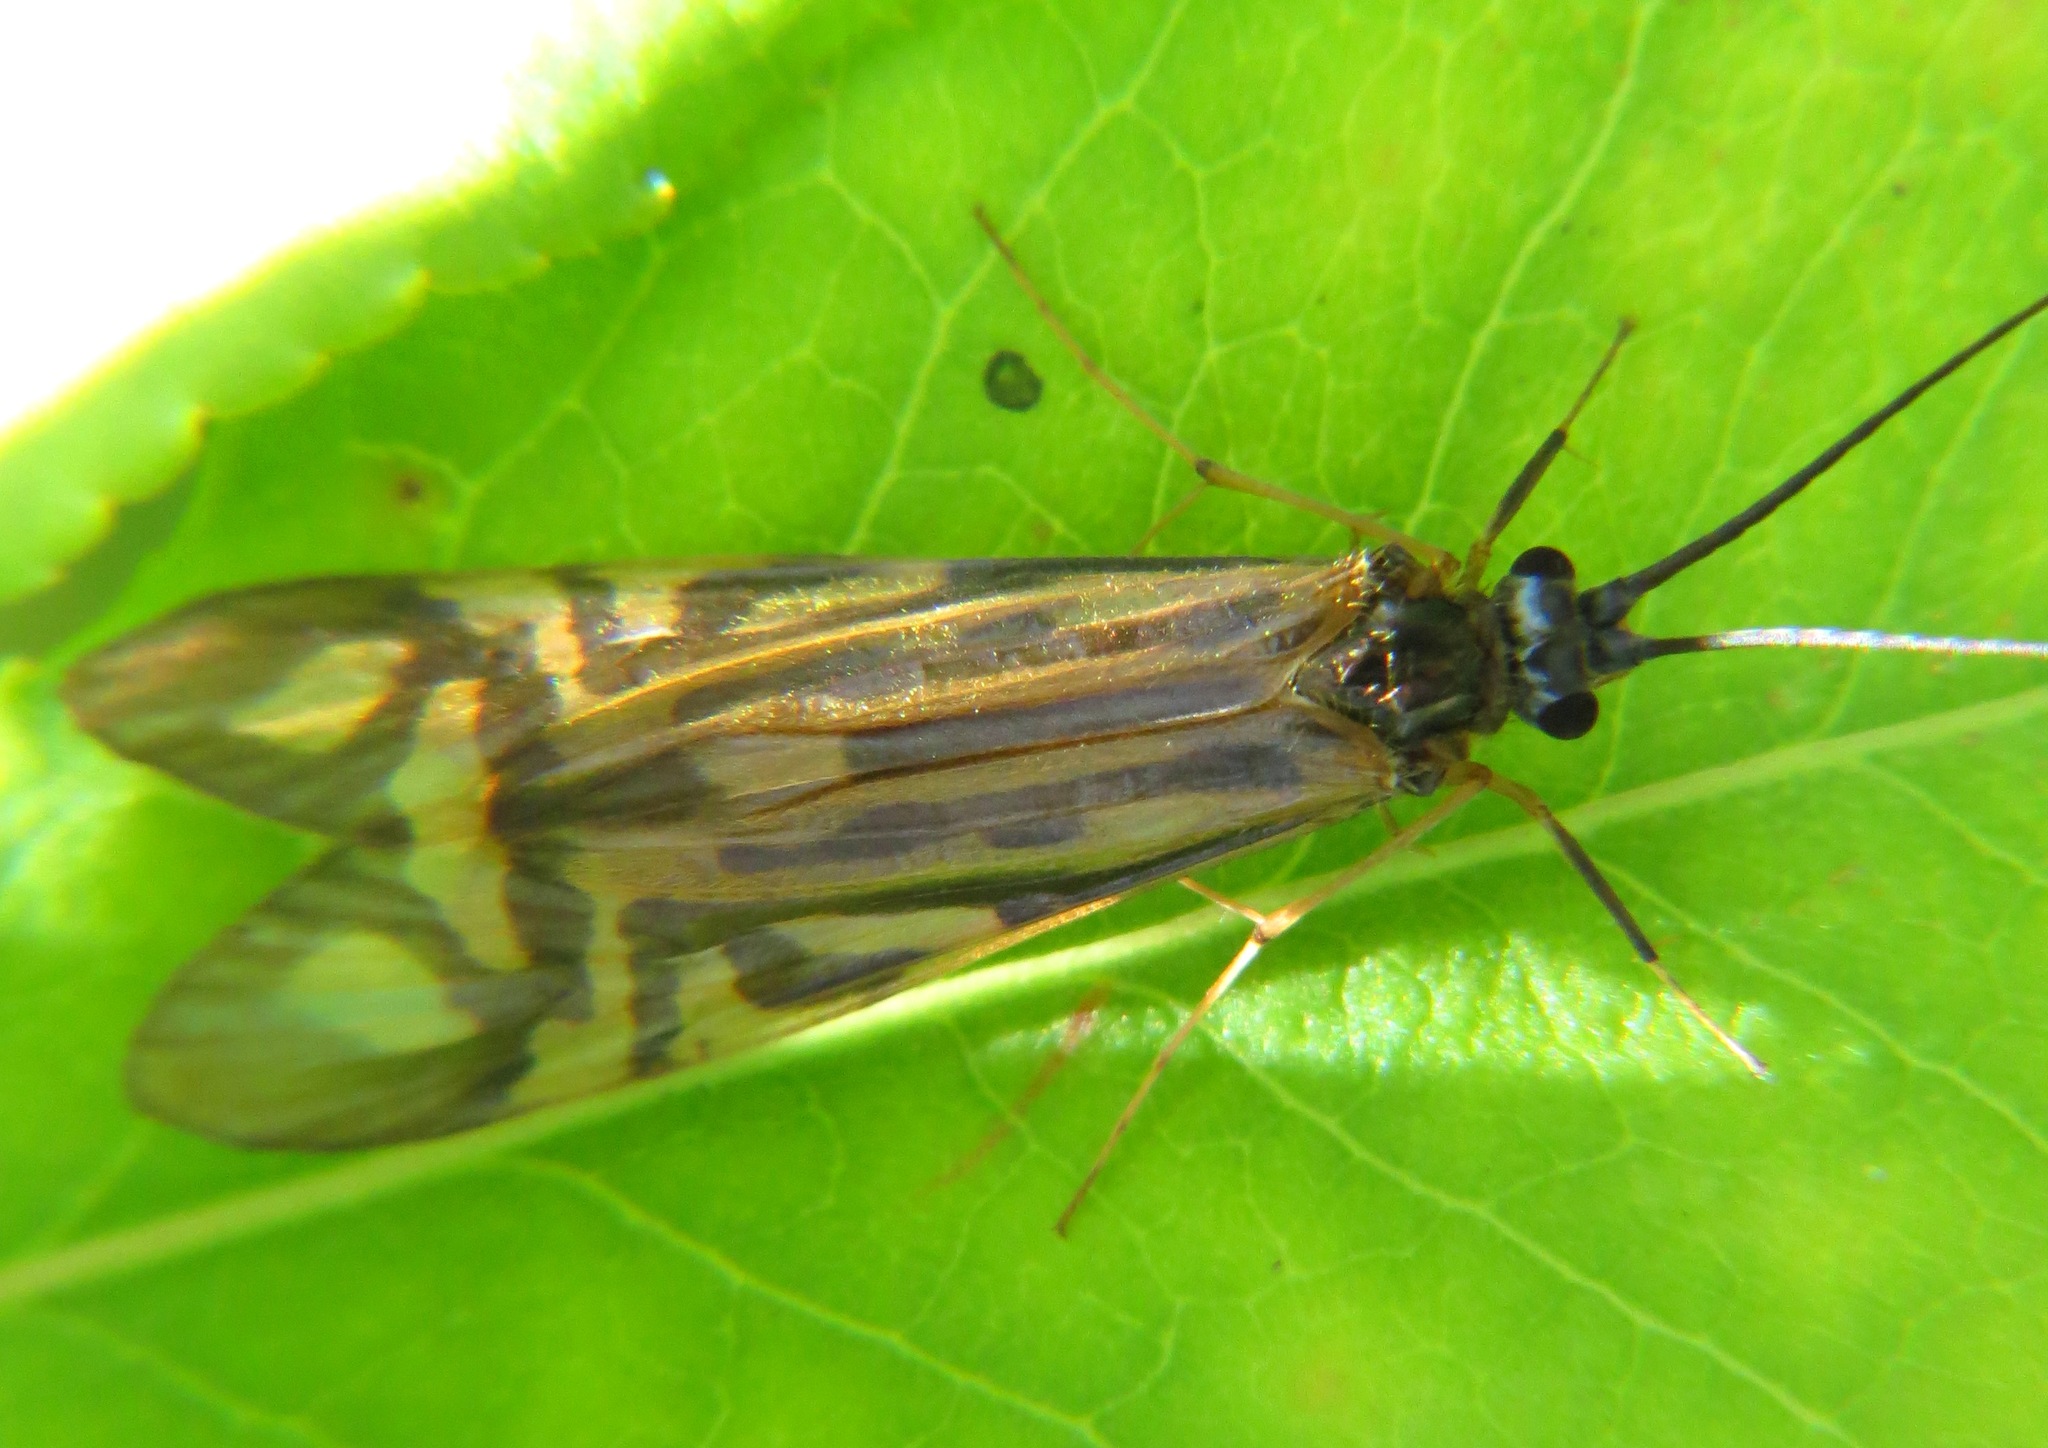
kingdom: Animalia
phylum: Arthropoda
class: Insecta
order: Trichoptera
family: Hydropsychidae
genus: Macrostemum
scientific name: Macrostemum zebratum
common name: Zebra caddisfly
